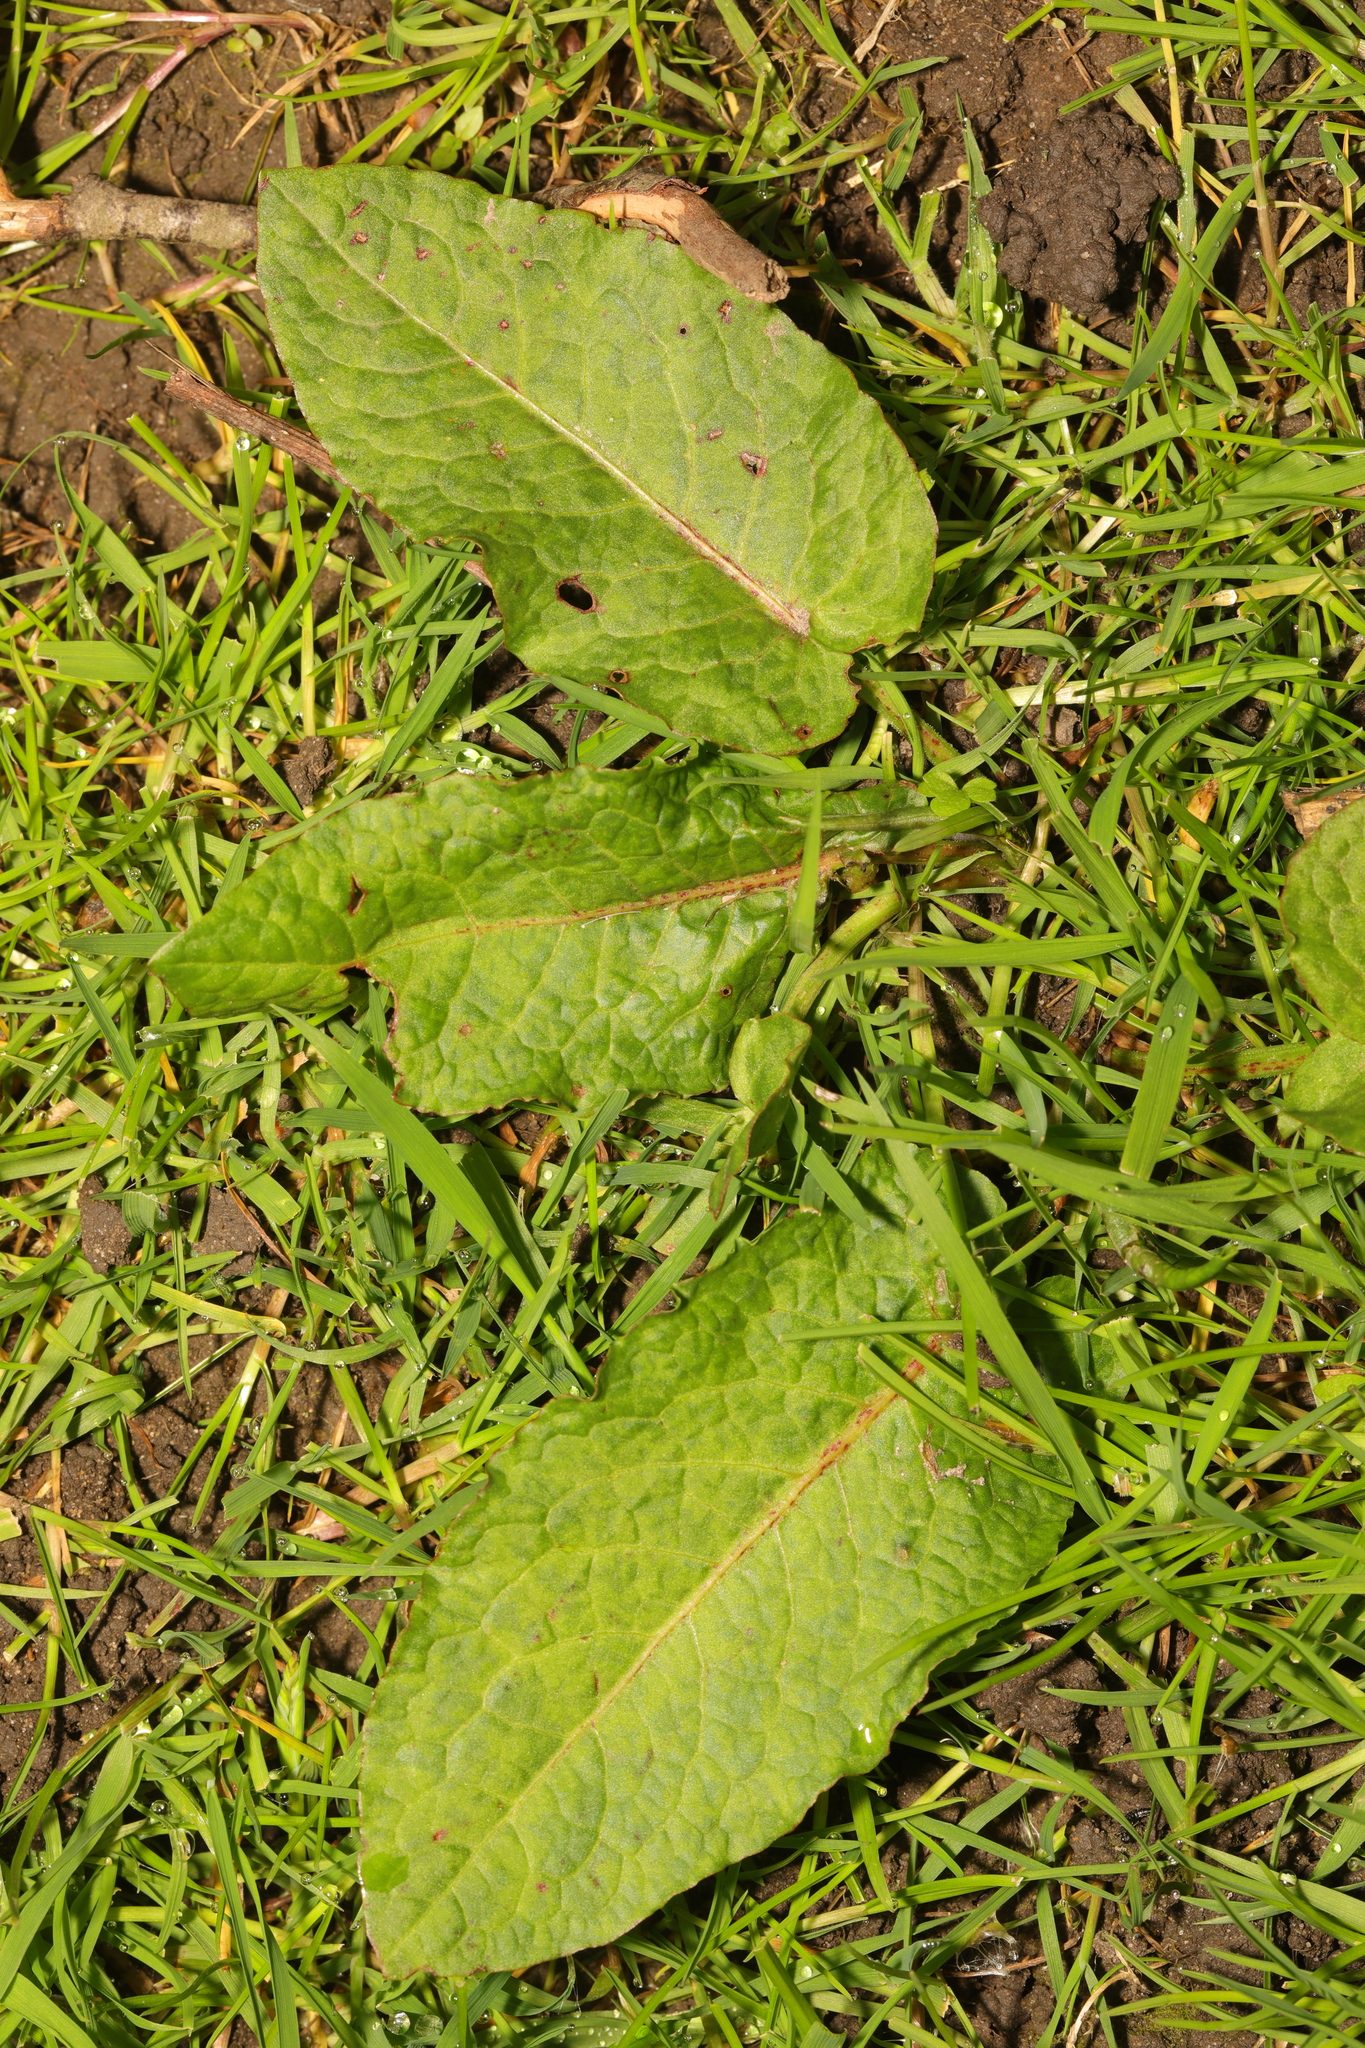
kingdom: Plantae
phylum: Tracheophyta
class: Magnoliopsida
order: Caryophyllales
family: Polygonaceae
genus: Rumex
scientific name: Rumex obtusifolius
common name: Bitter dock
